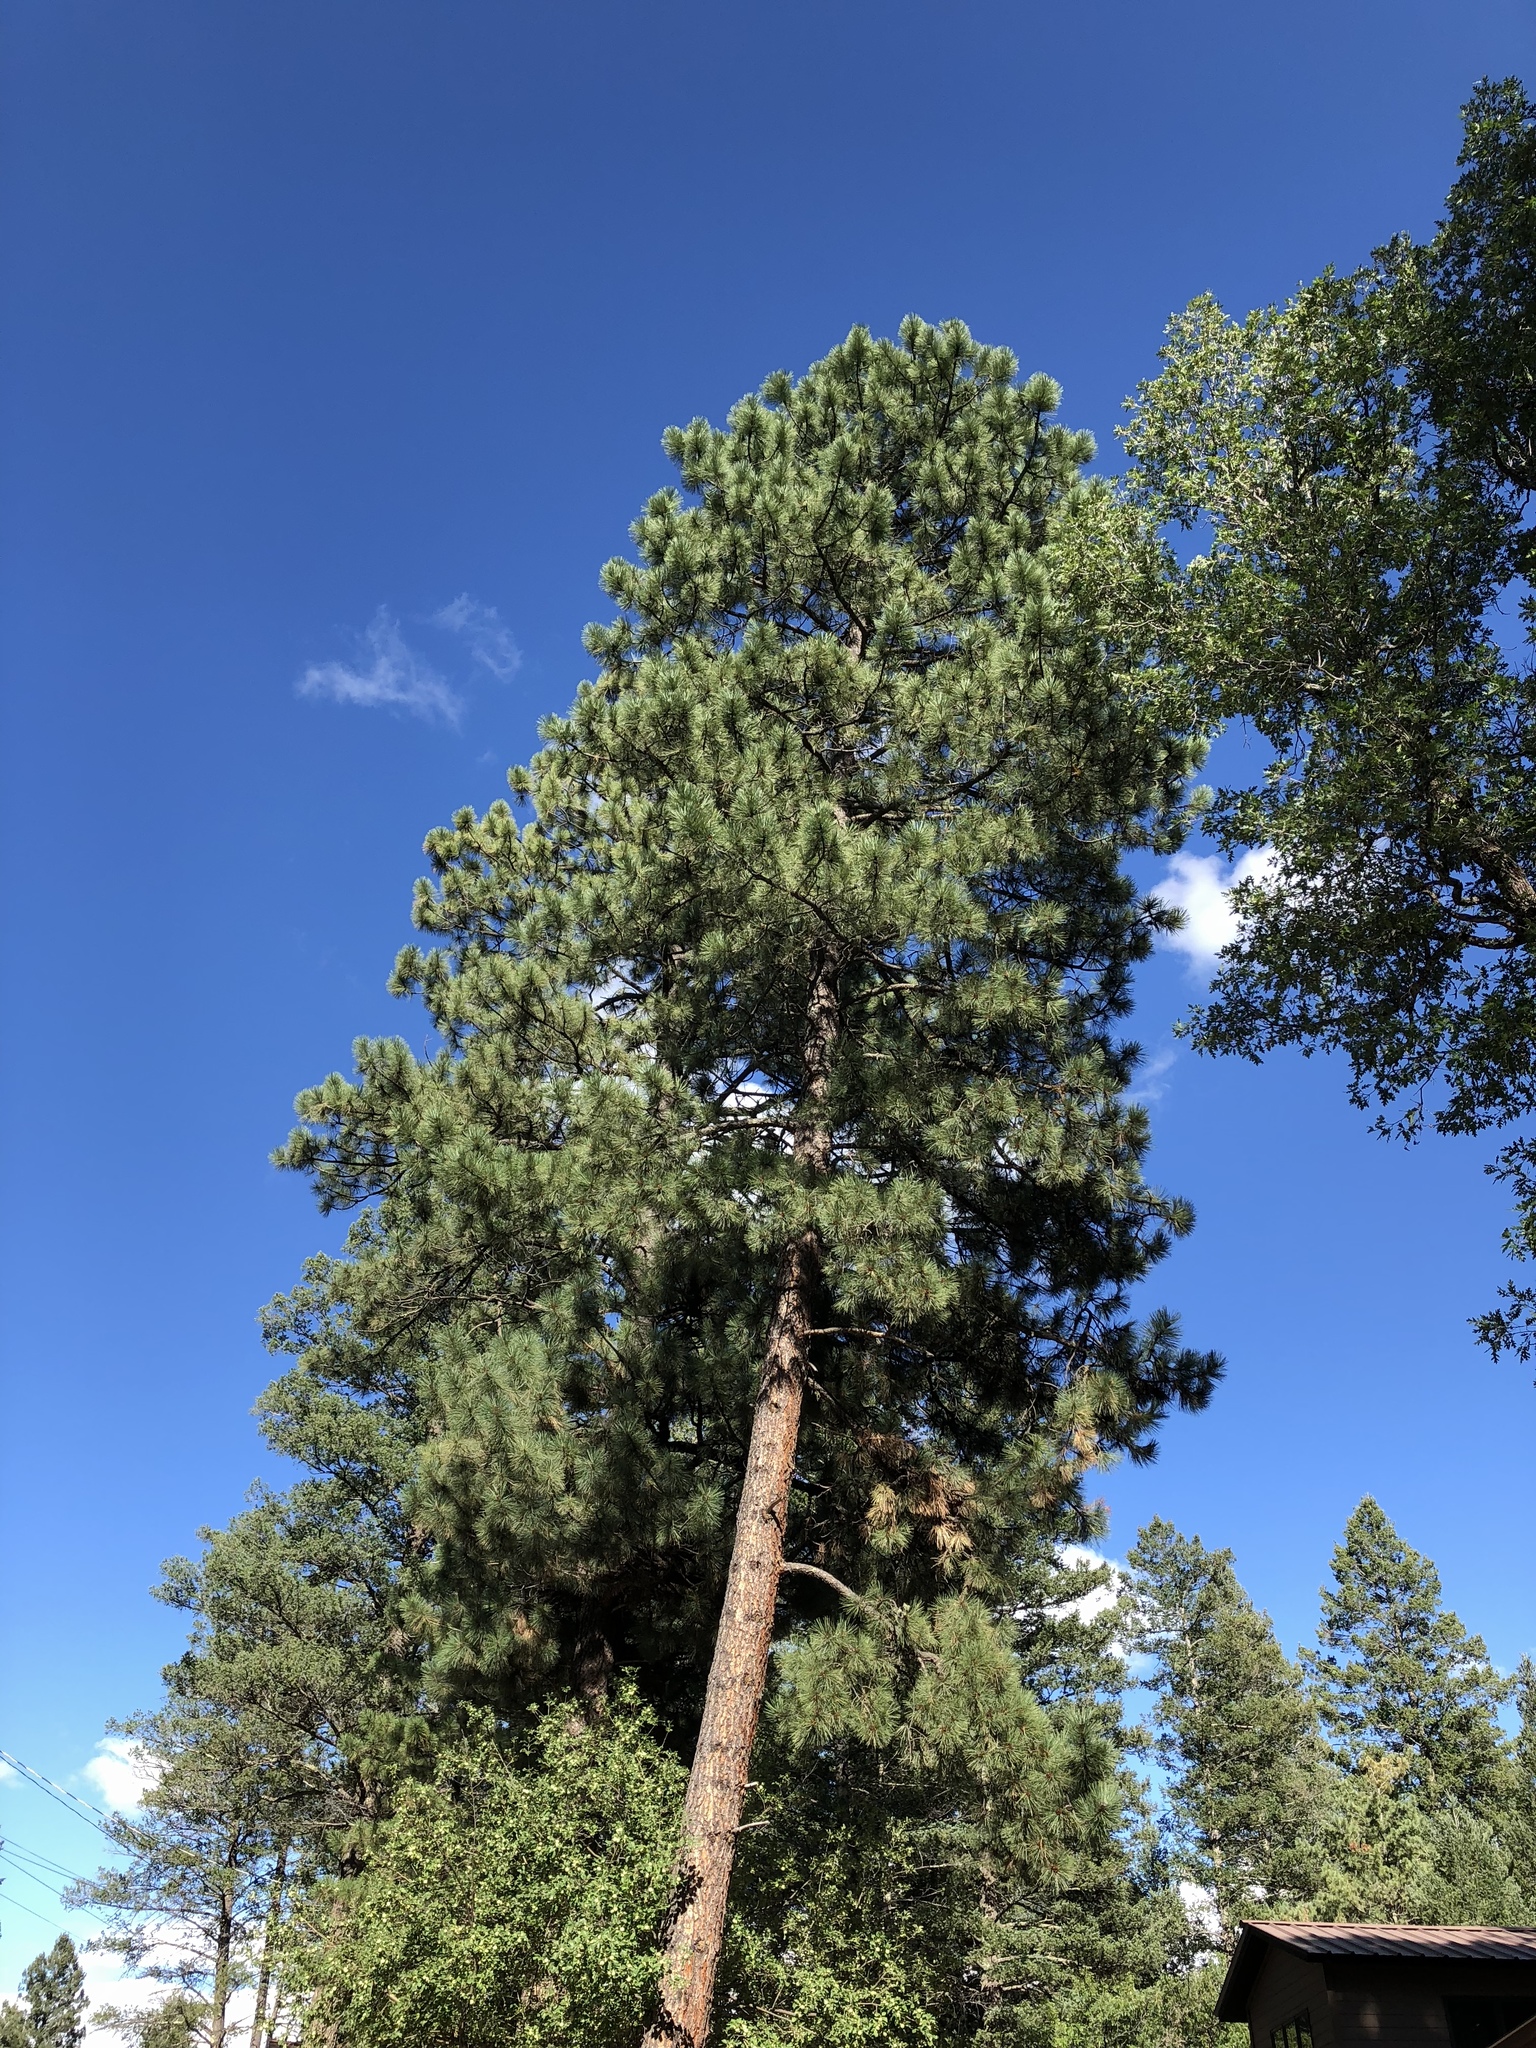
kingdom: Plantae
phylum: Tracheophyta
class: Pinopsida
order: Pinales
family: Pinaceae
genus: Pinus
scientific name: Pinus ponderosa
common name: Western yellow-pine
